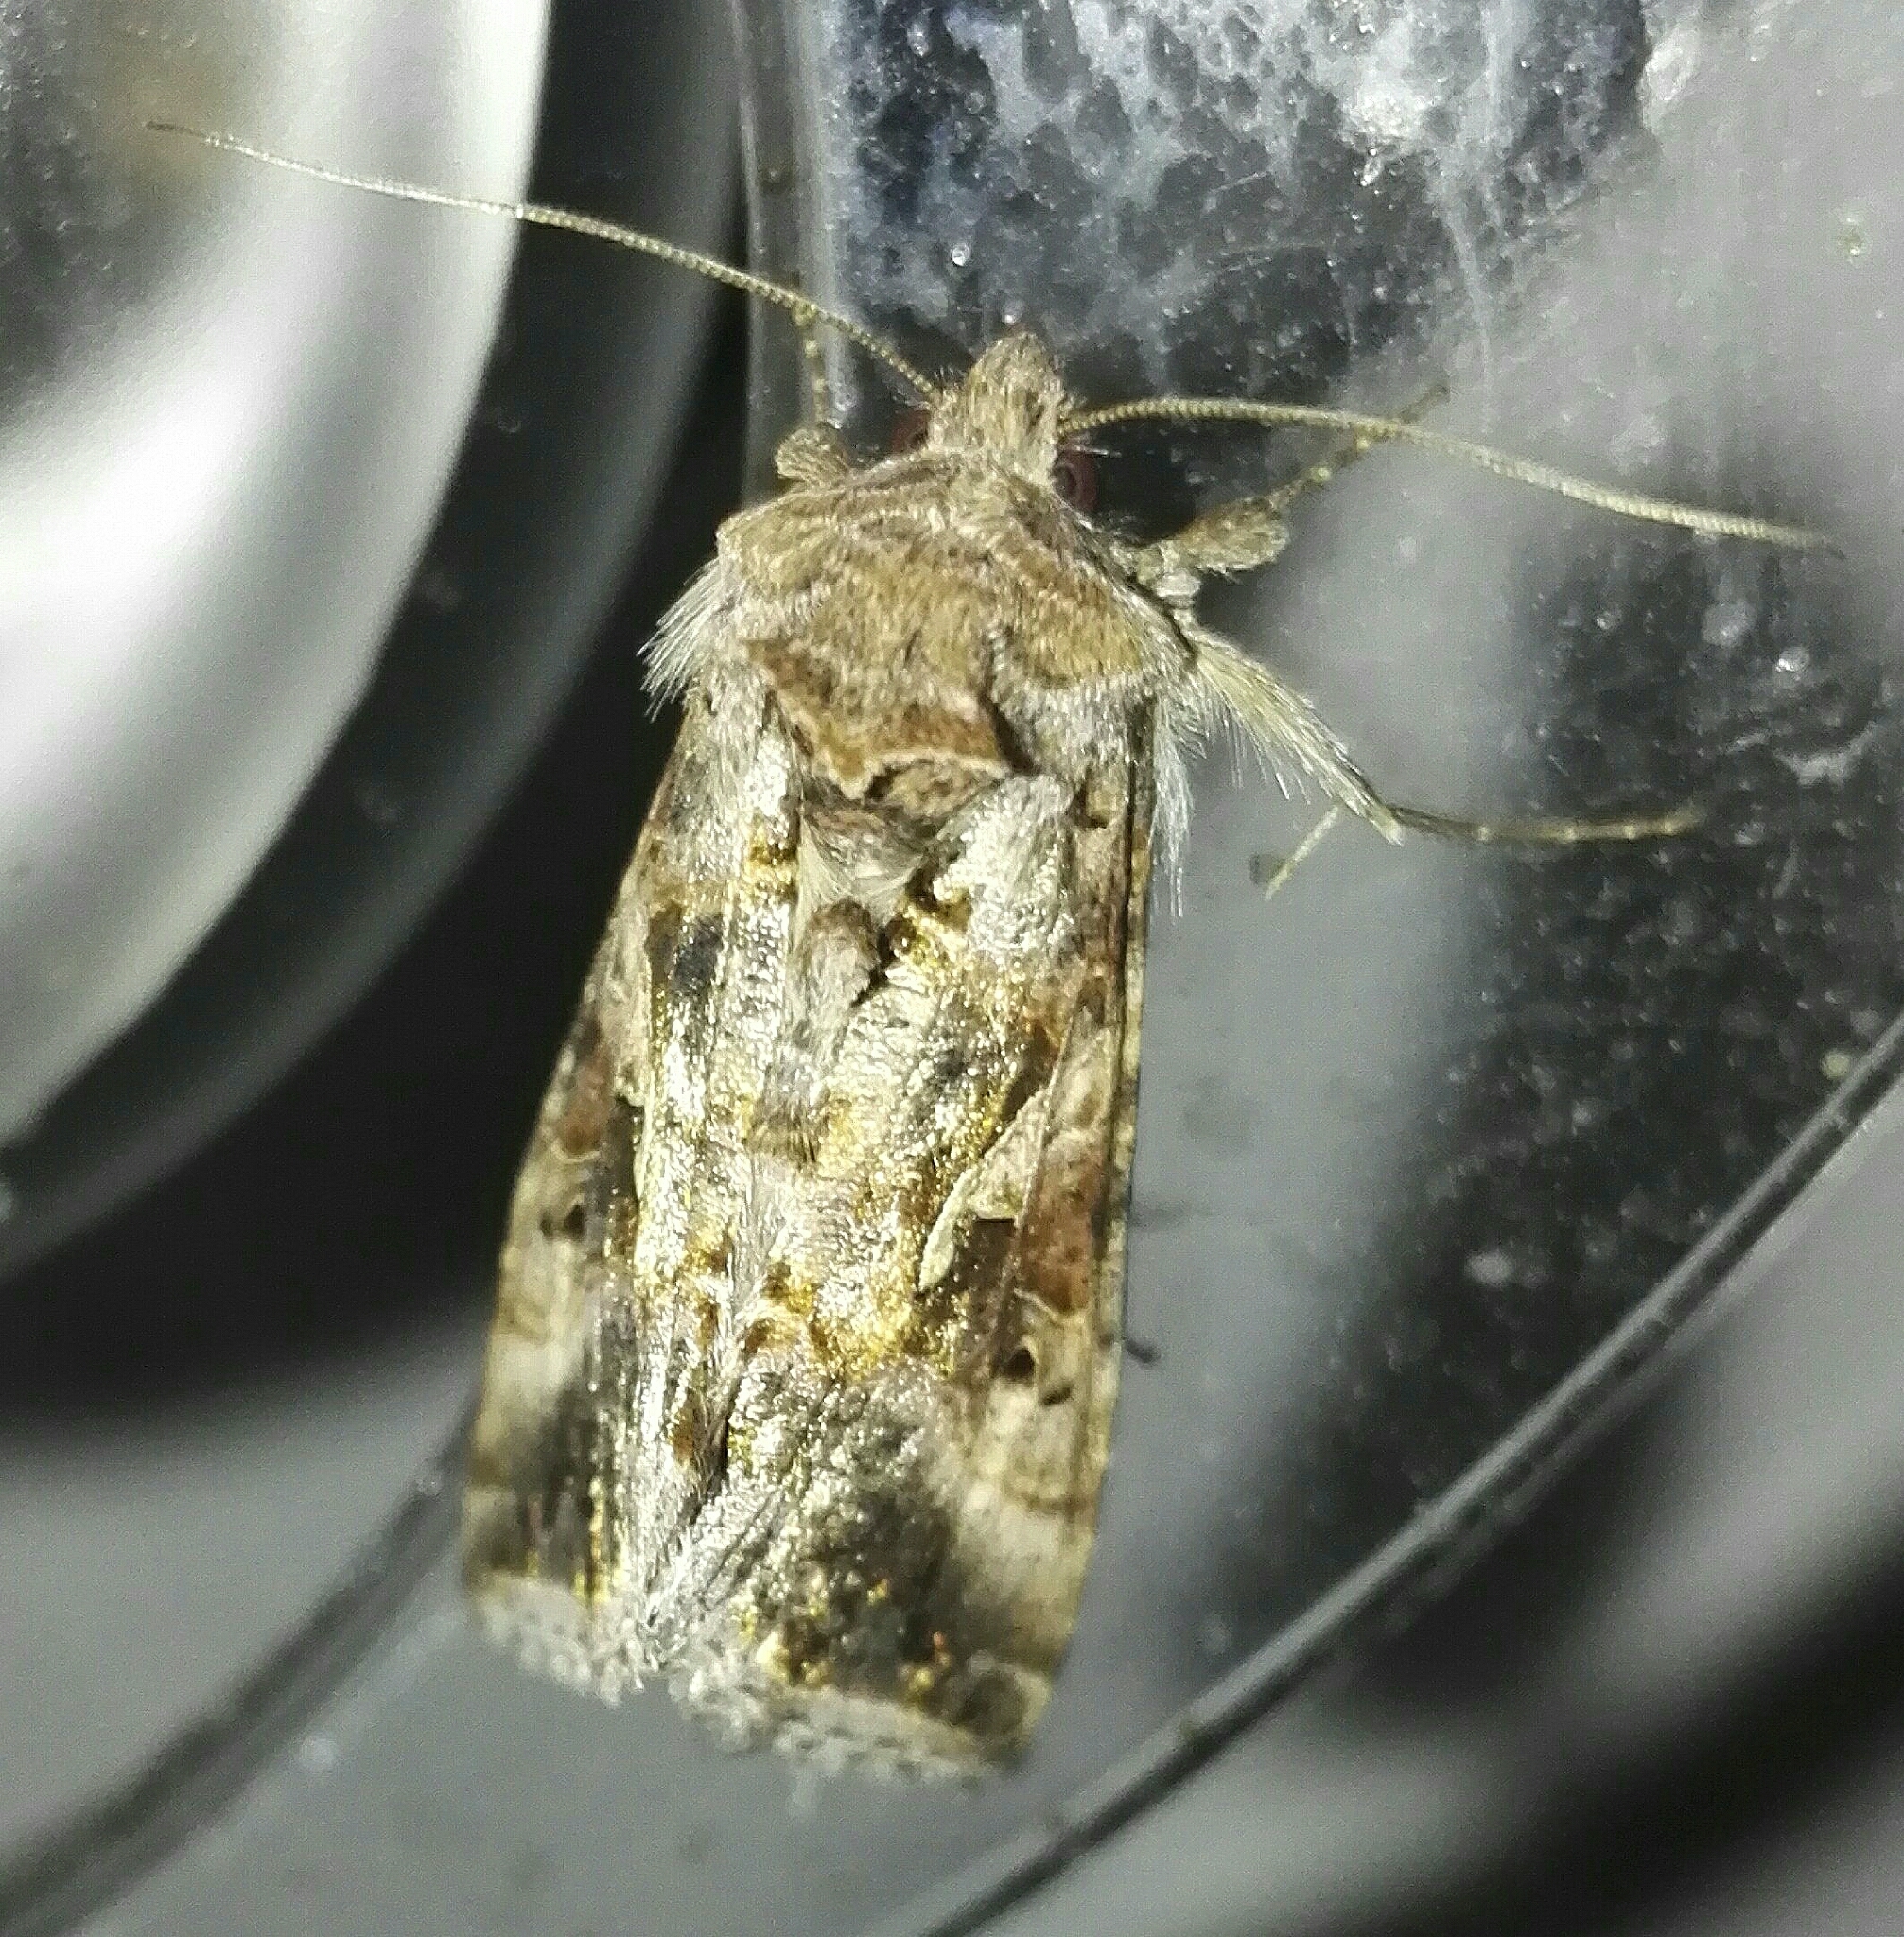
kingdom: Animalia
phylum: Arthropoda
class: Insecta
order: Lepidoptera
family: Noctuidae
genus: Autographa
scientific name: Autographa gamma
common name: Silver y
